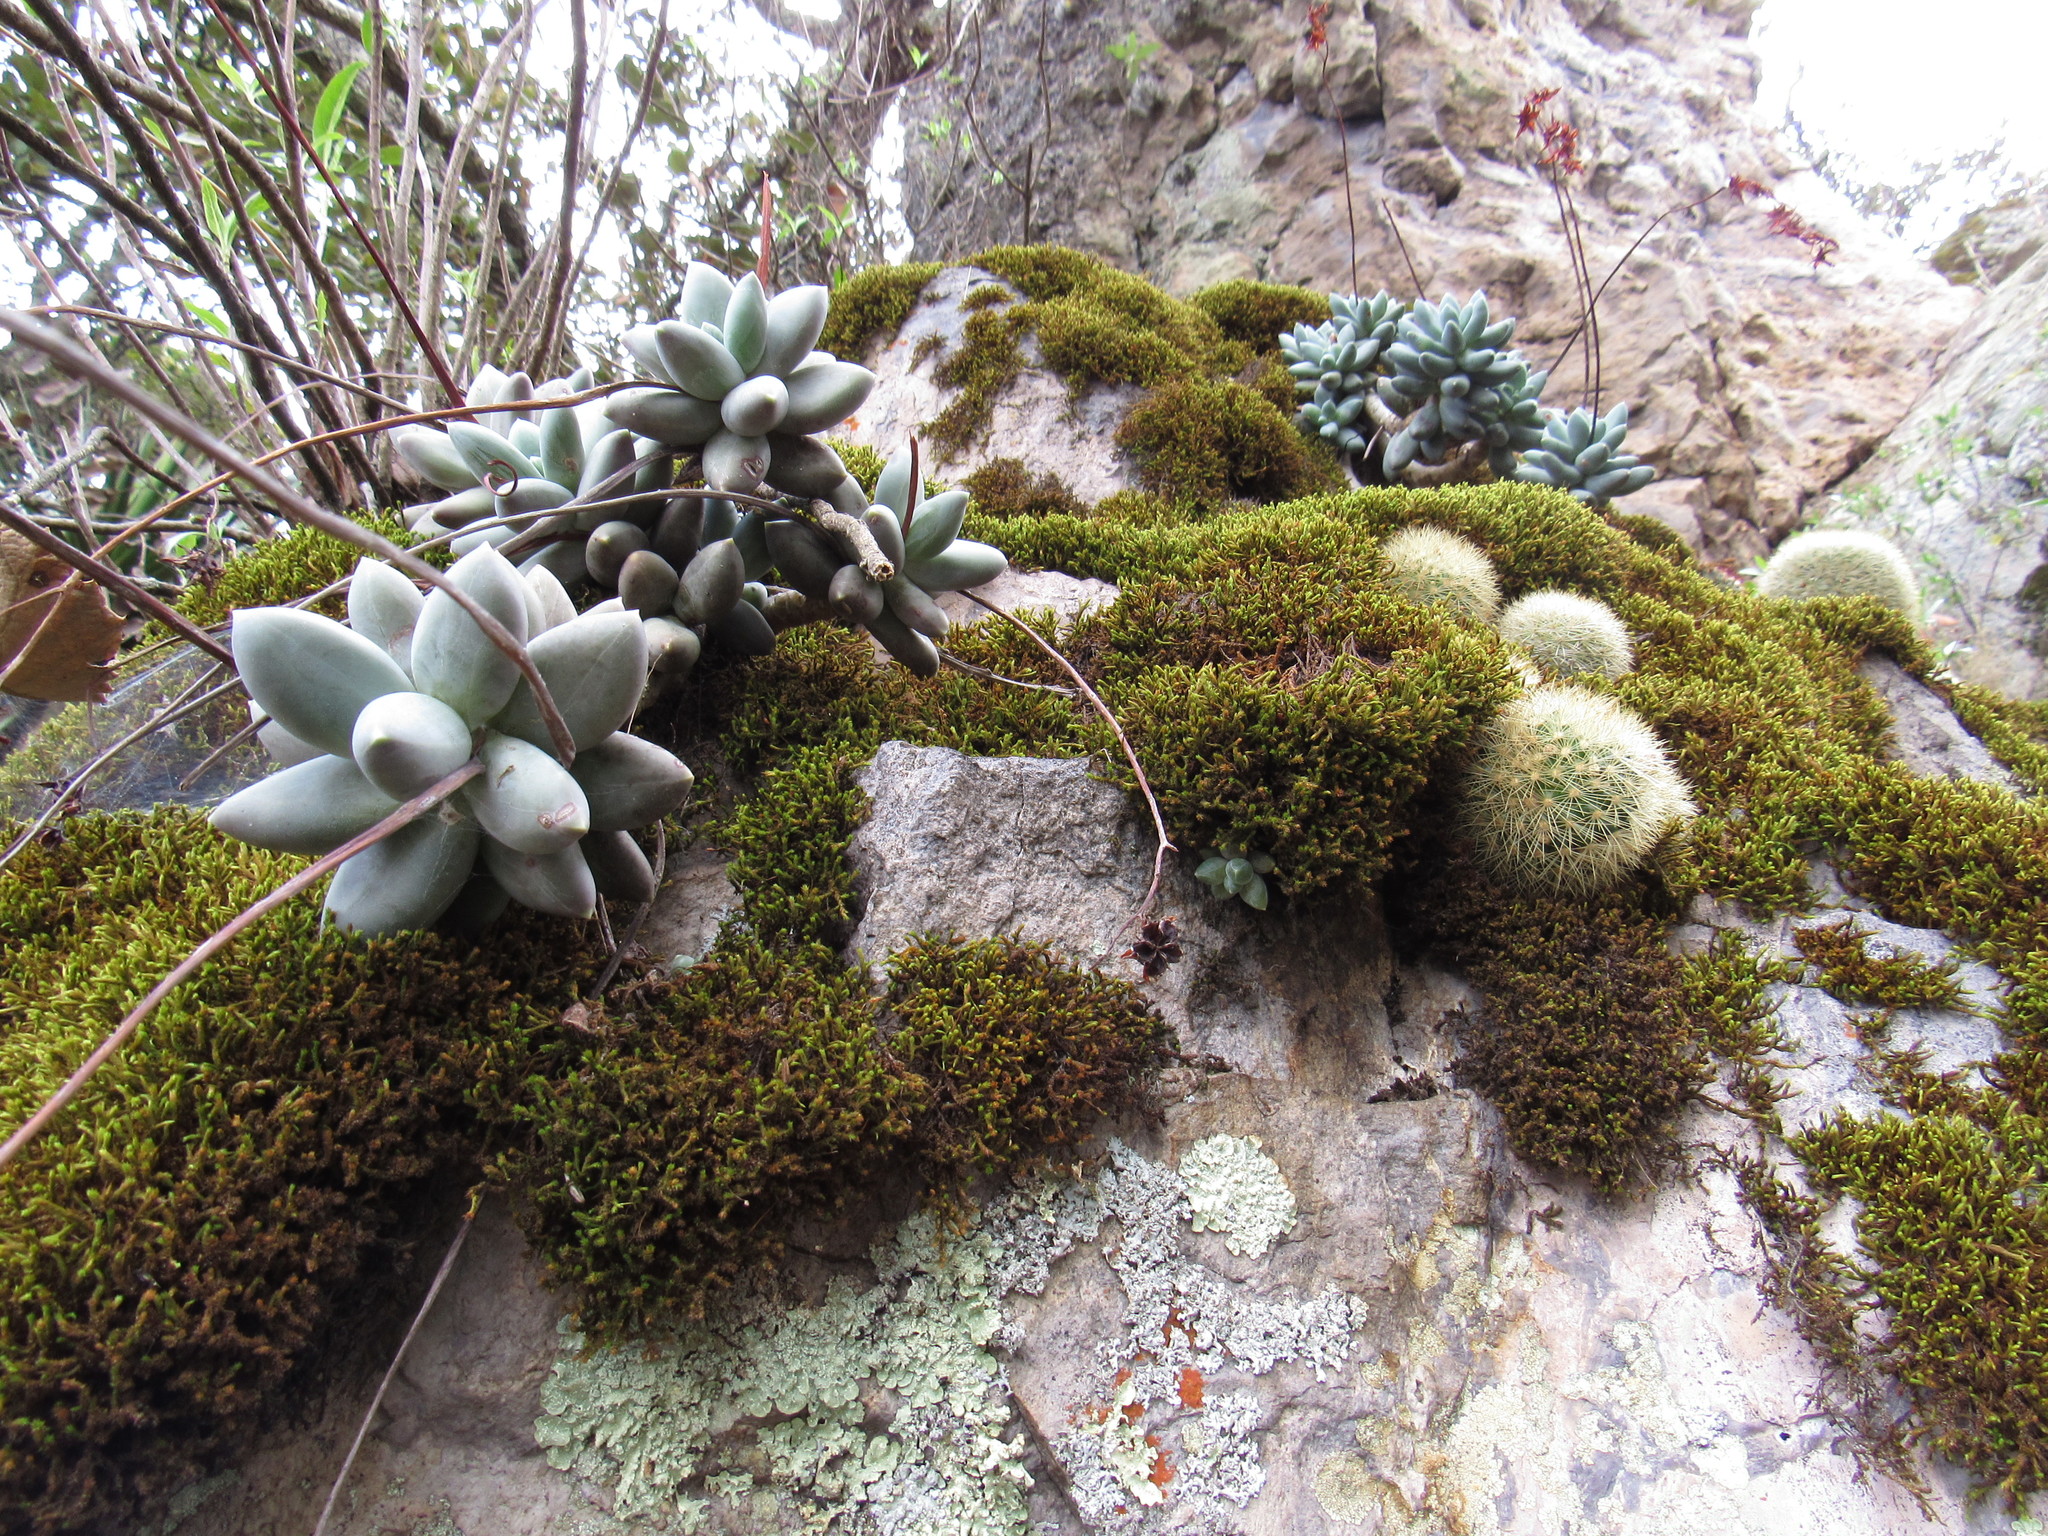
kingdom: Plantae
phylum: Tracheophyta
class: Magnoliopsida
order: Saxifragales
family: Crassulaceae
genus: Pachyphytum
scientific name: Pachyphytum compactum
